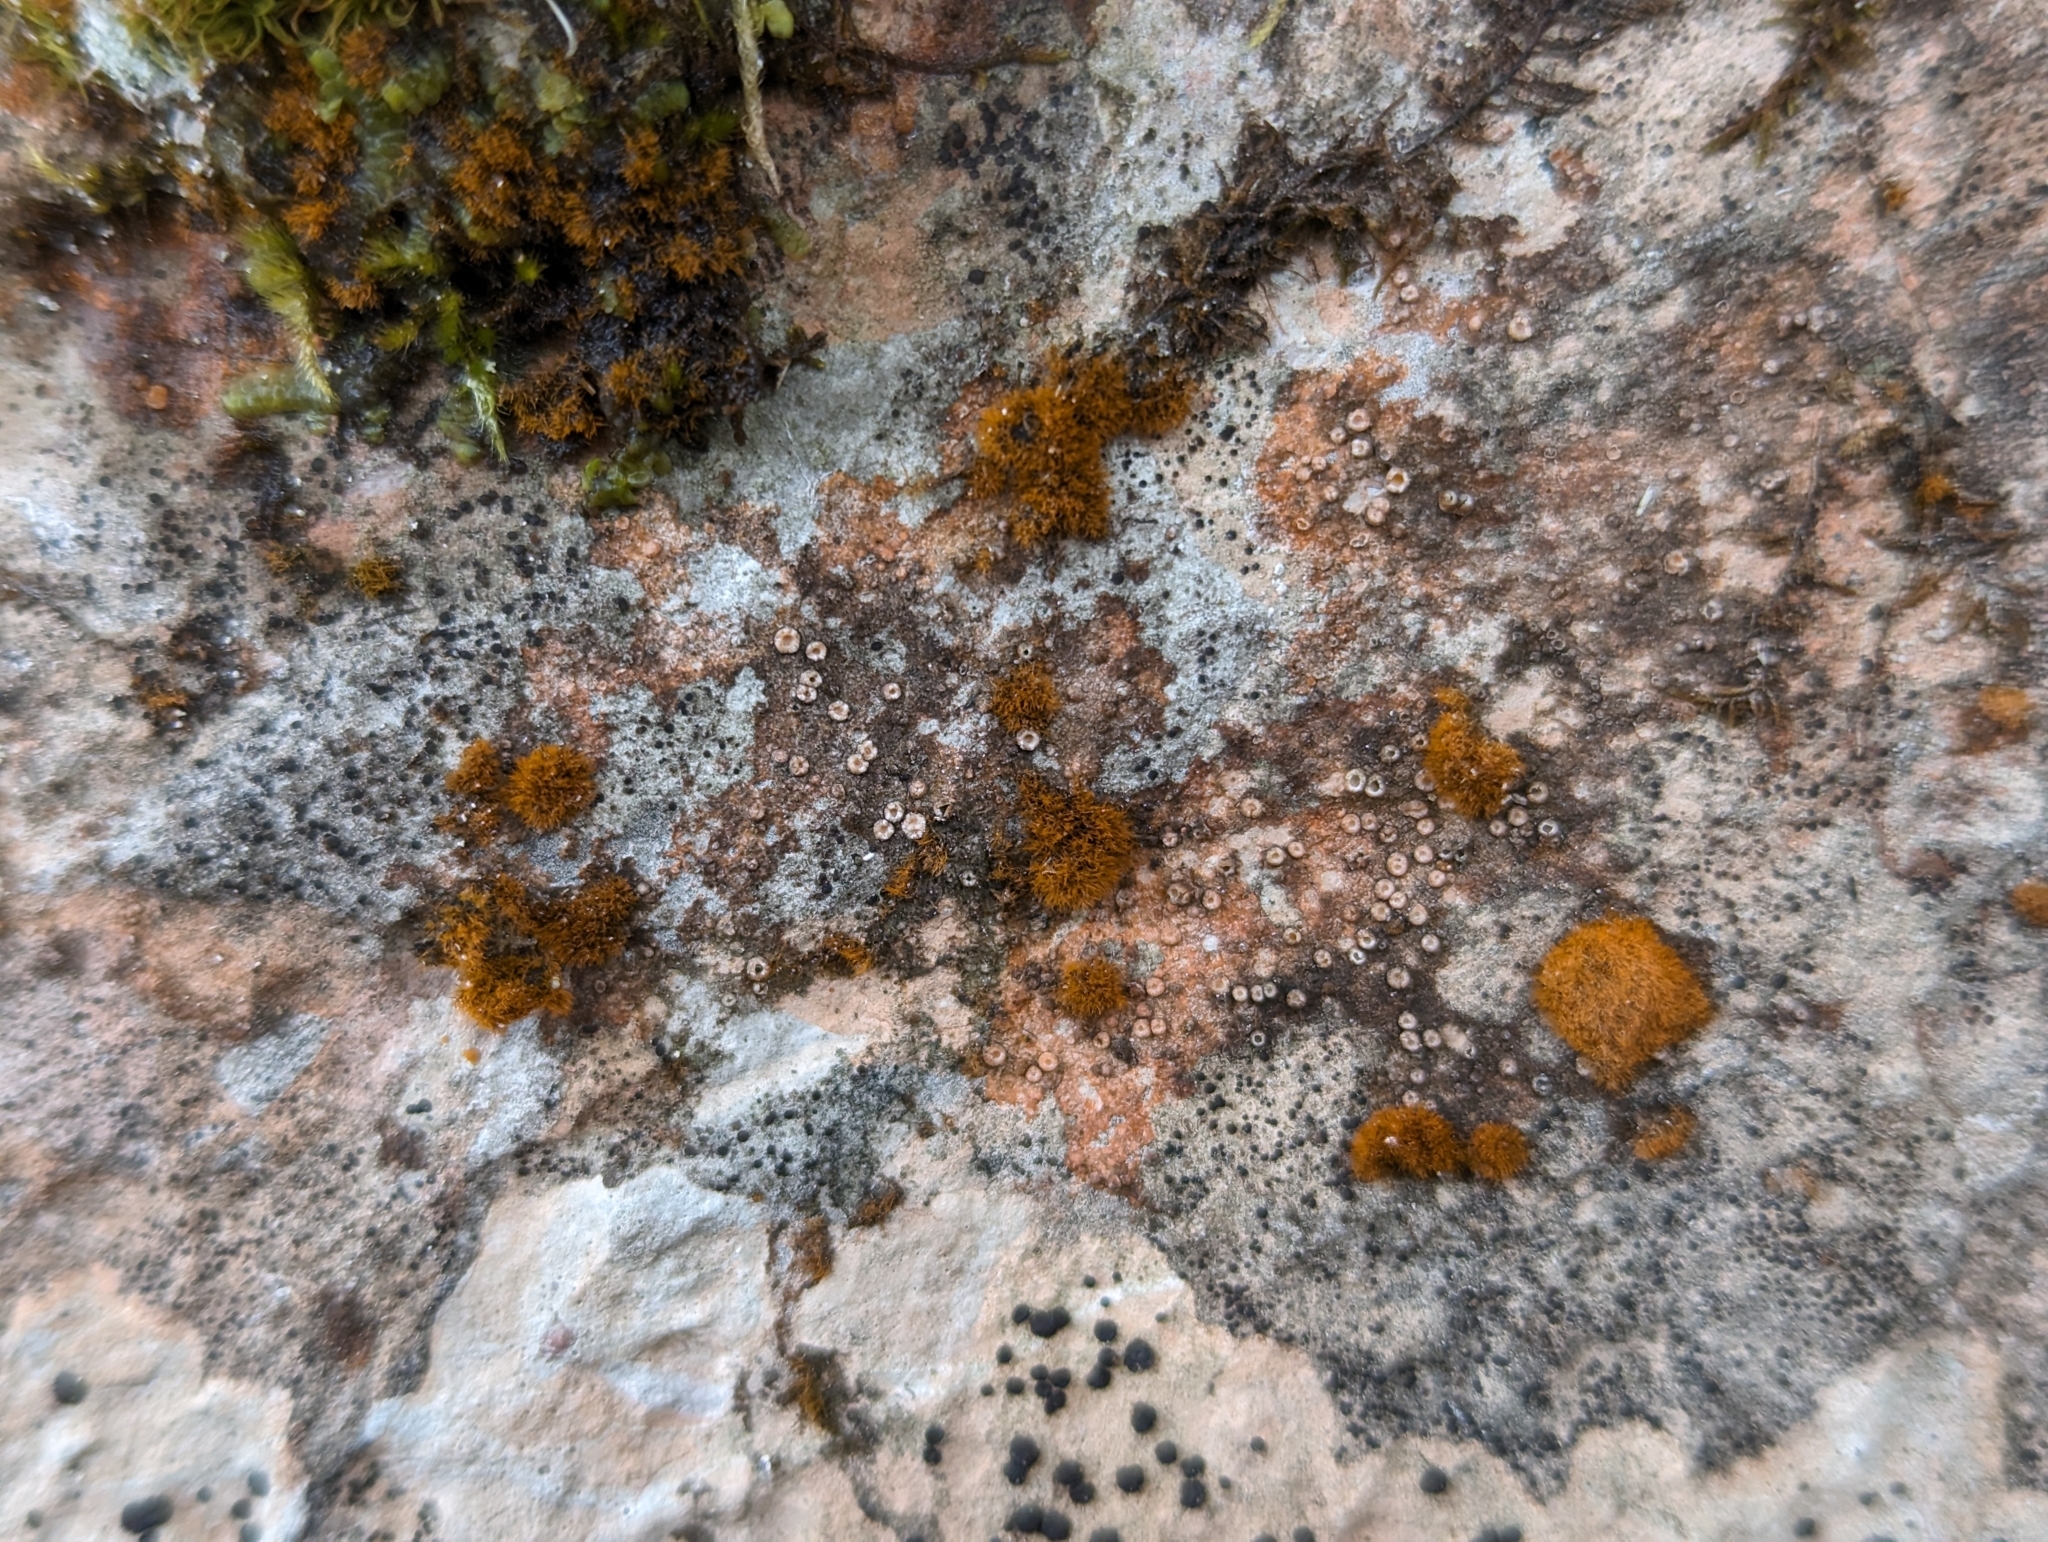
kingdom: Fungi
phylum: Ascomycota
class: Lecanoromycetes
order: Gyalectales
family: Gyalectaceae
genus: Gyalecta
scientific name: Gyalecta jenensis
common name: Rock dimple lichen
